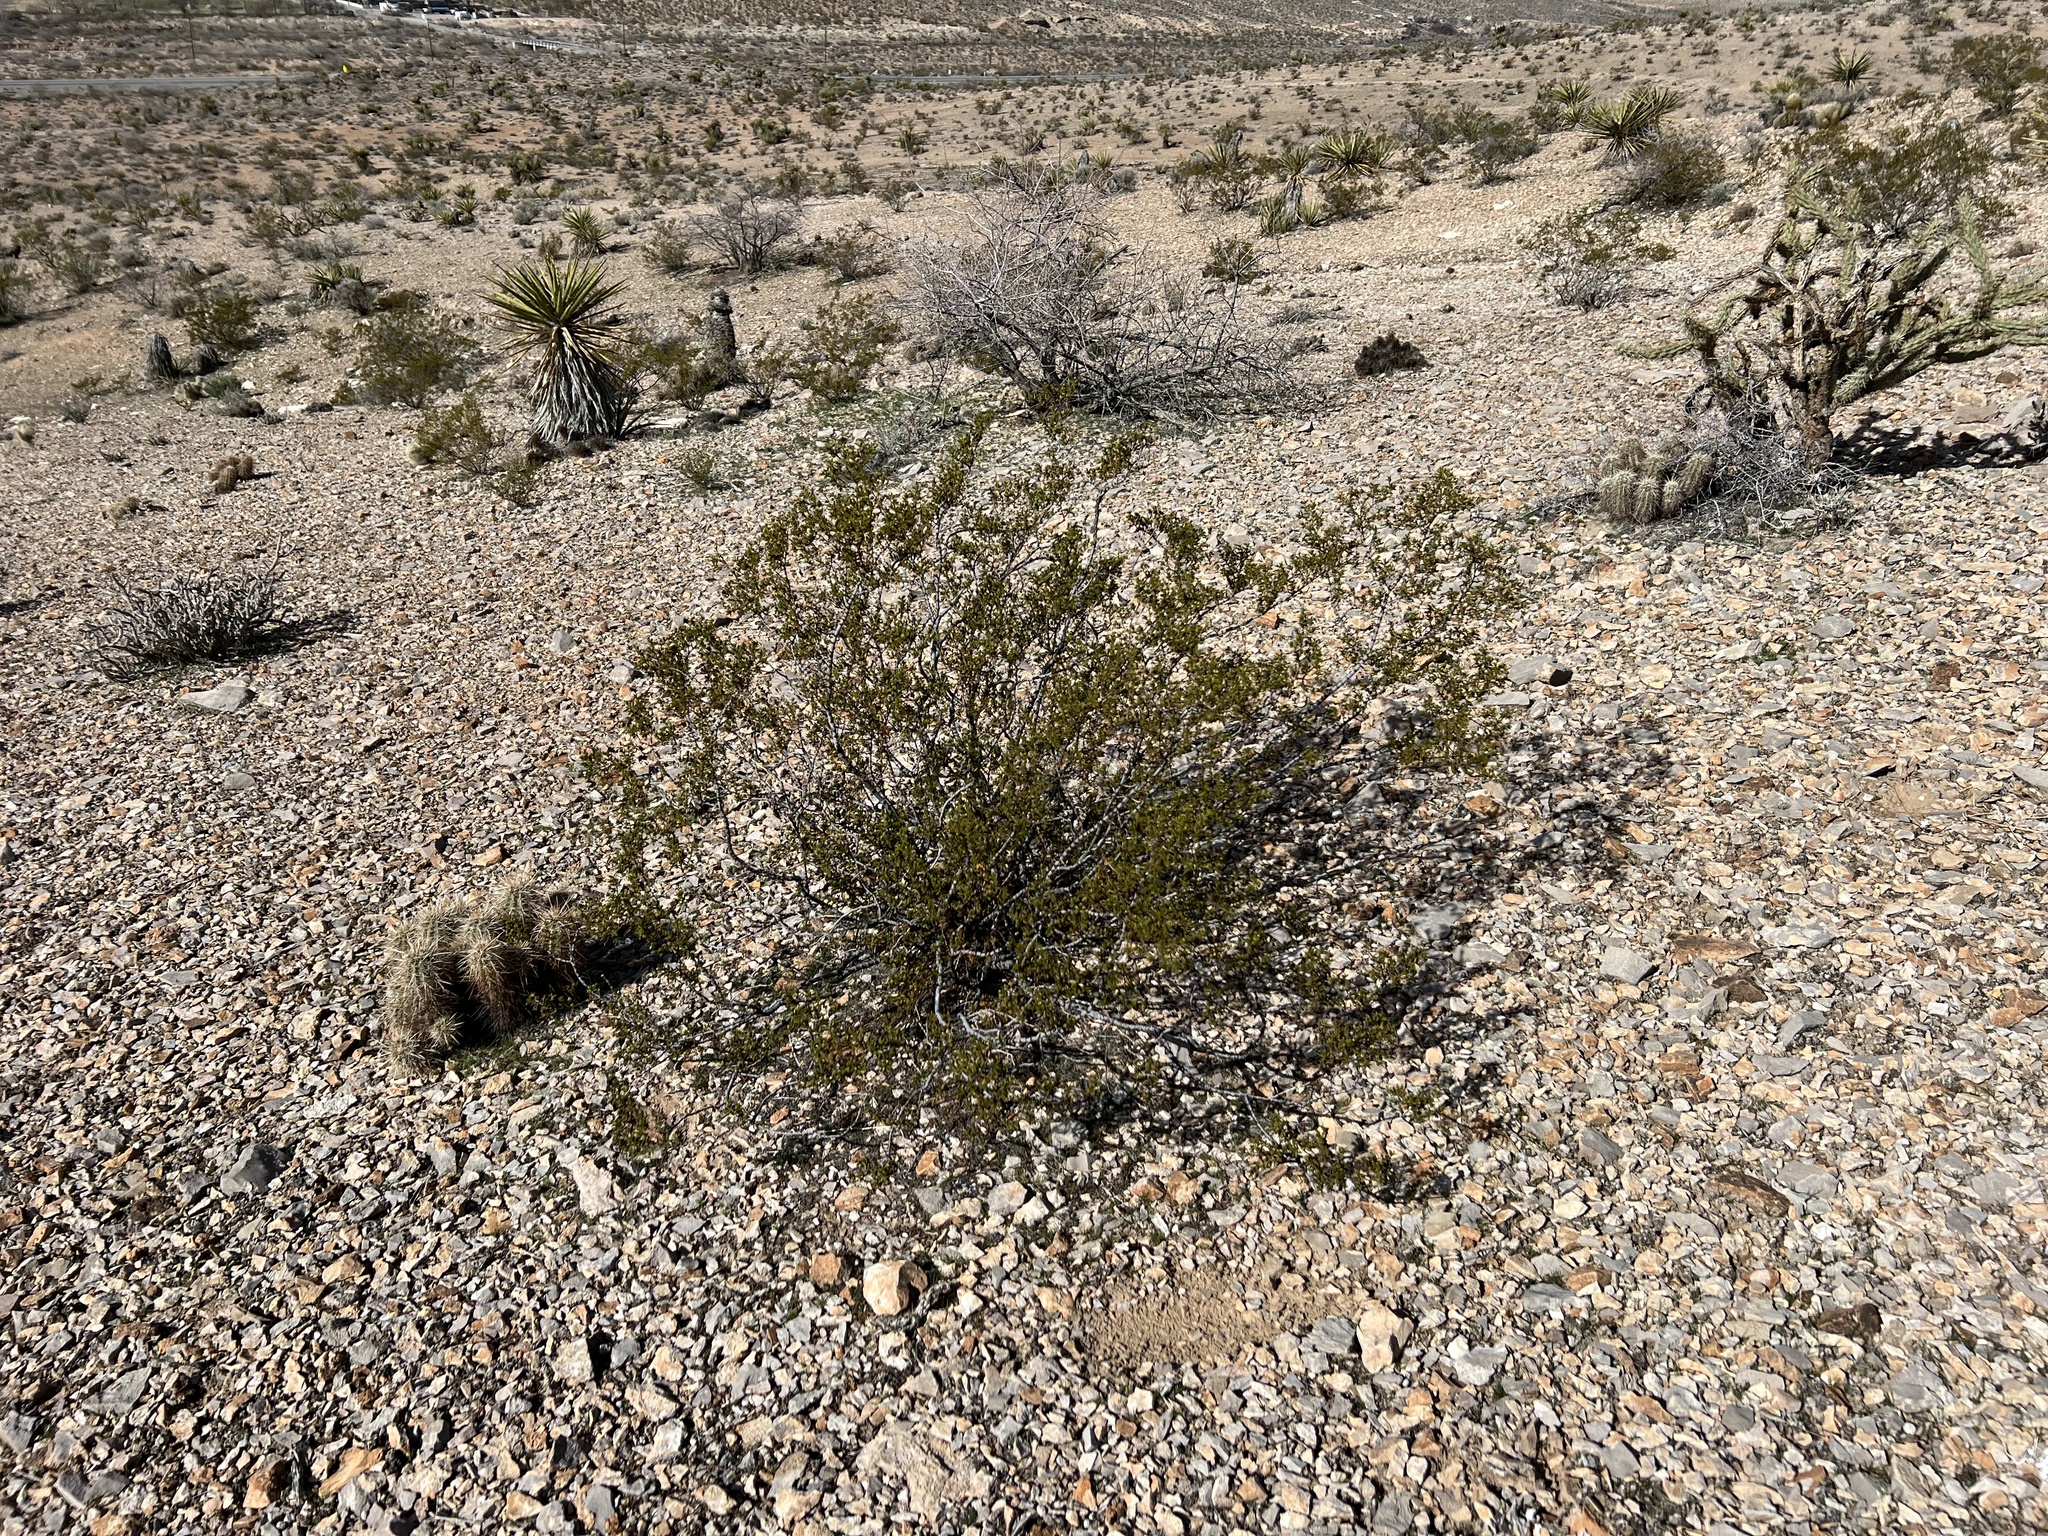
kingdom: Plantae
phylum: Tracheophyta
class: Magnoliopsida
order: Zygophyllales
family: Zygophyllaceae
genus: Larrea
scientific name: Larrea tridentata
